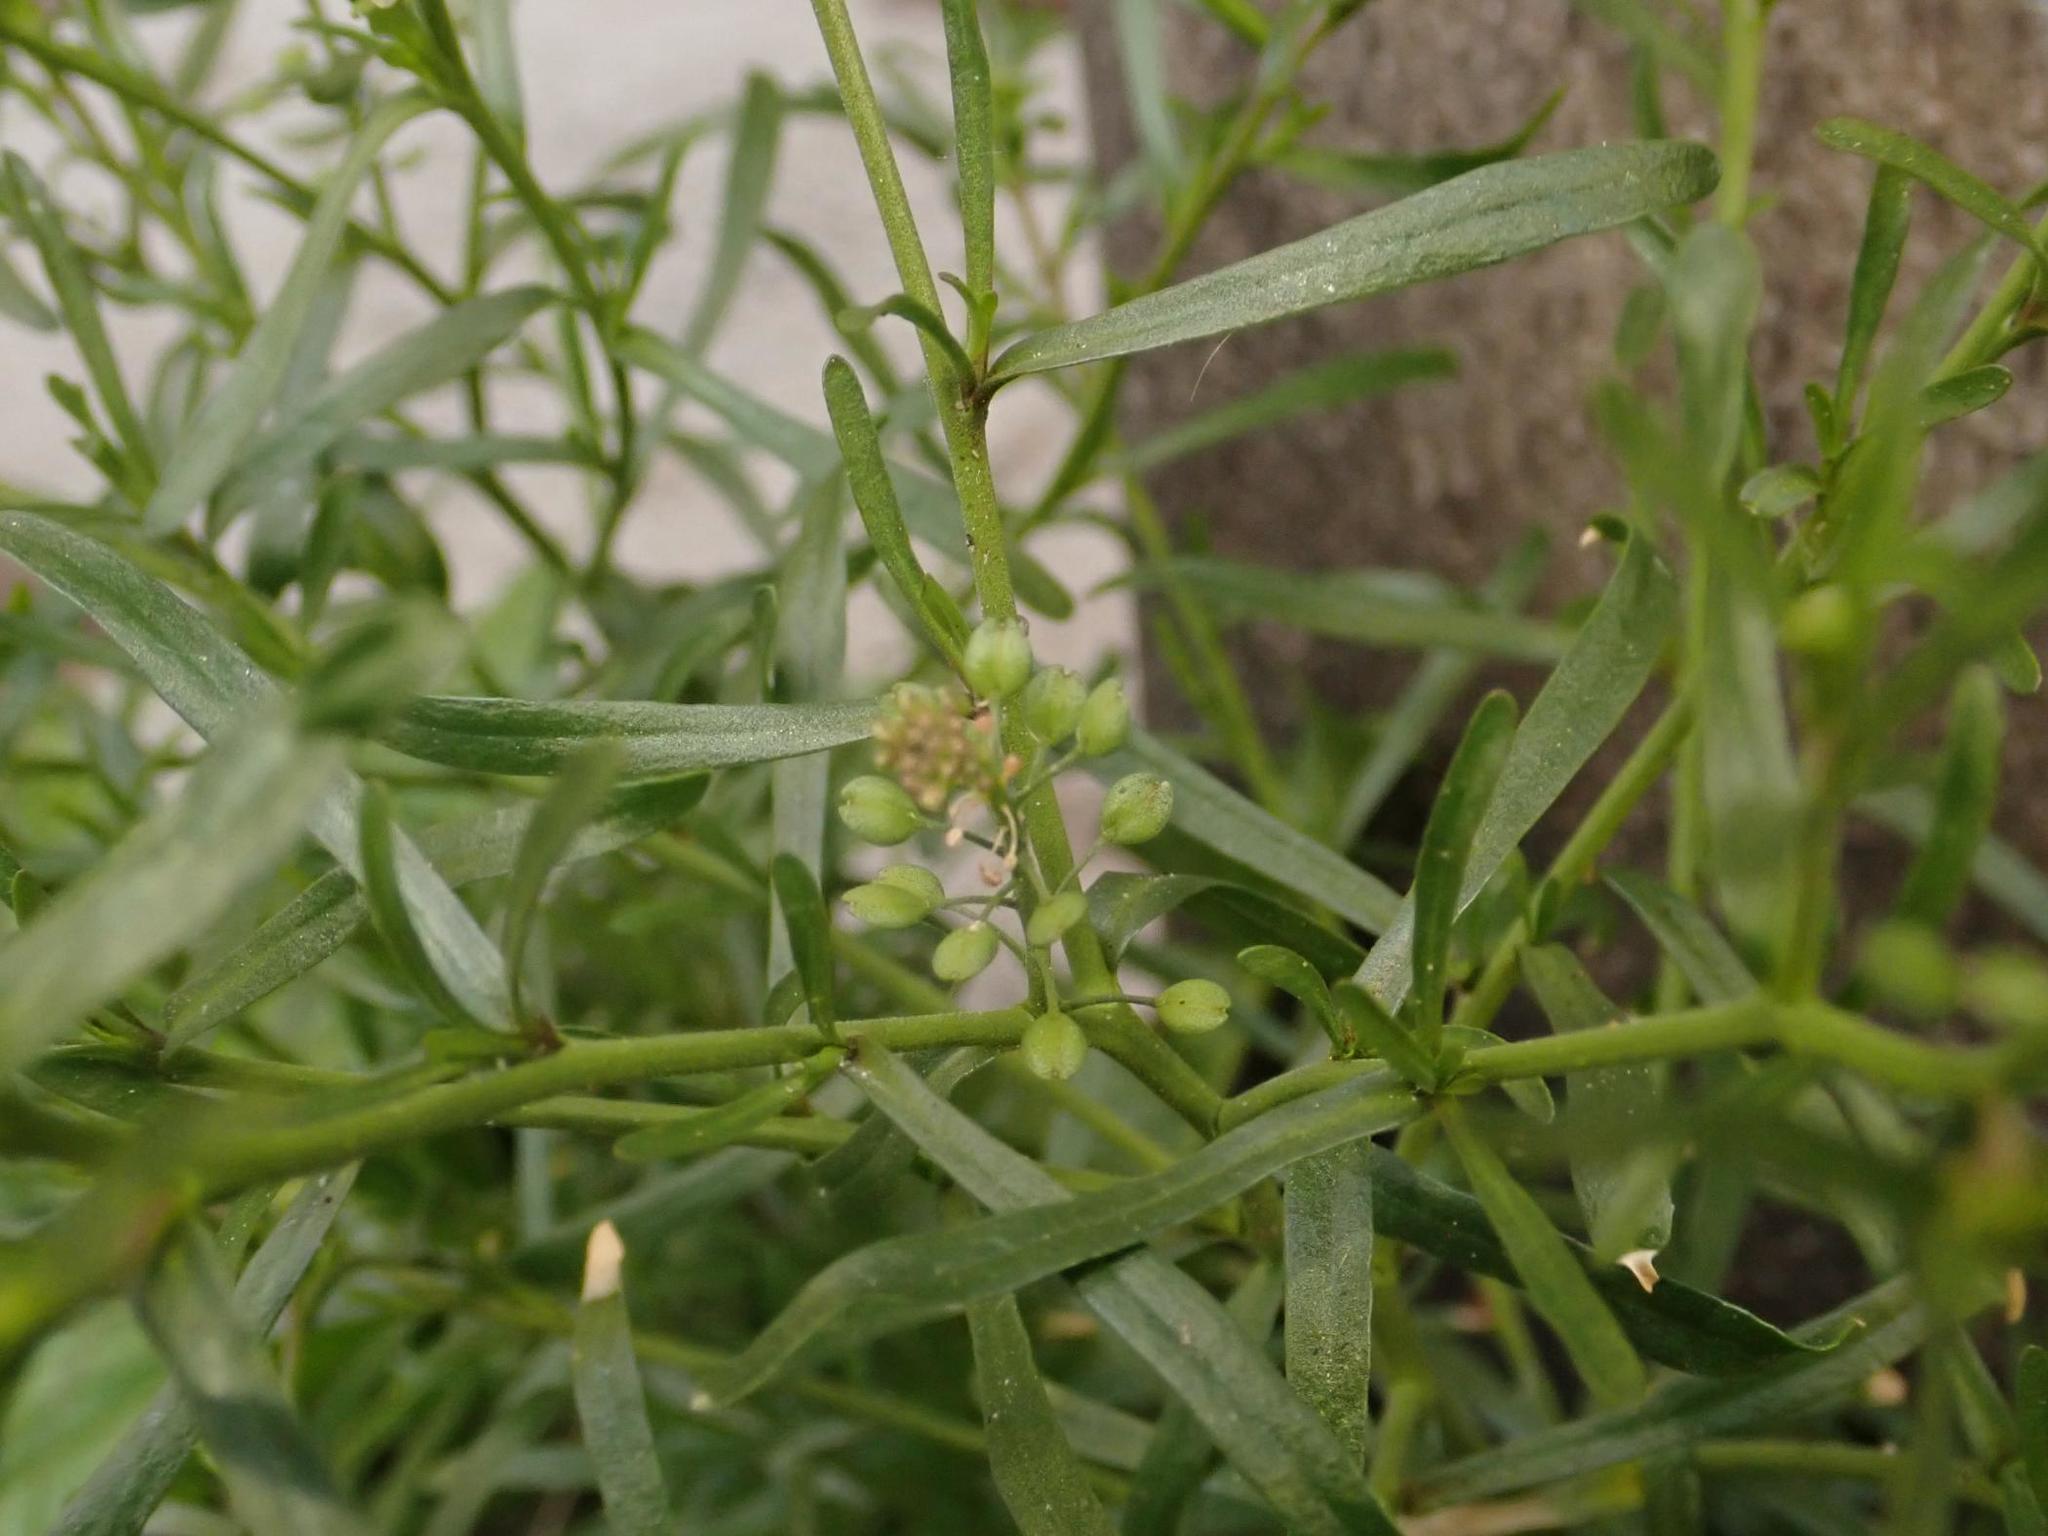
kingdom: Plantae
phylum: Tracheophyta
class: Magnoliopsida
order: Brassicales
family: Brassicaceae
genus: Lepidium
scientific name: Lepidium ruderale
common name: Narrow-leaved pepperwort
